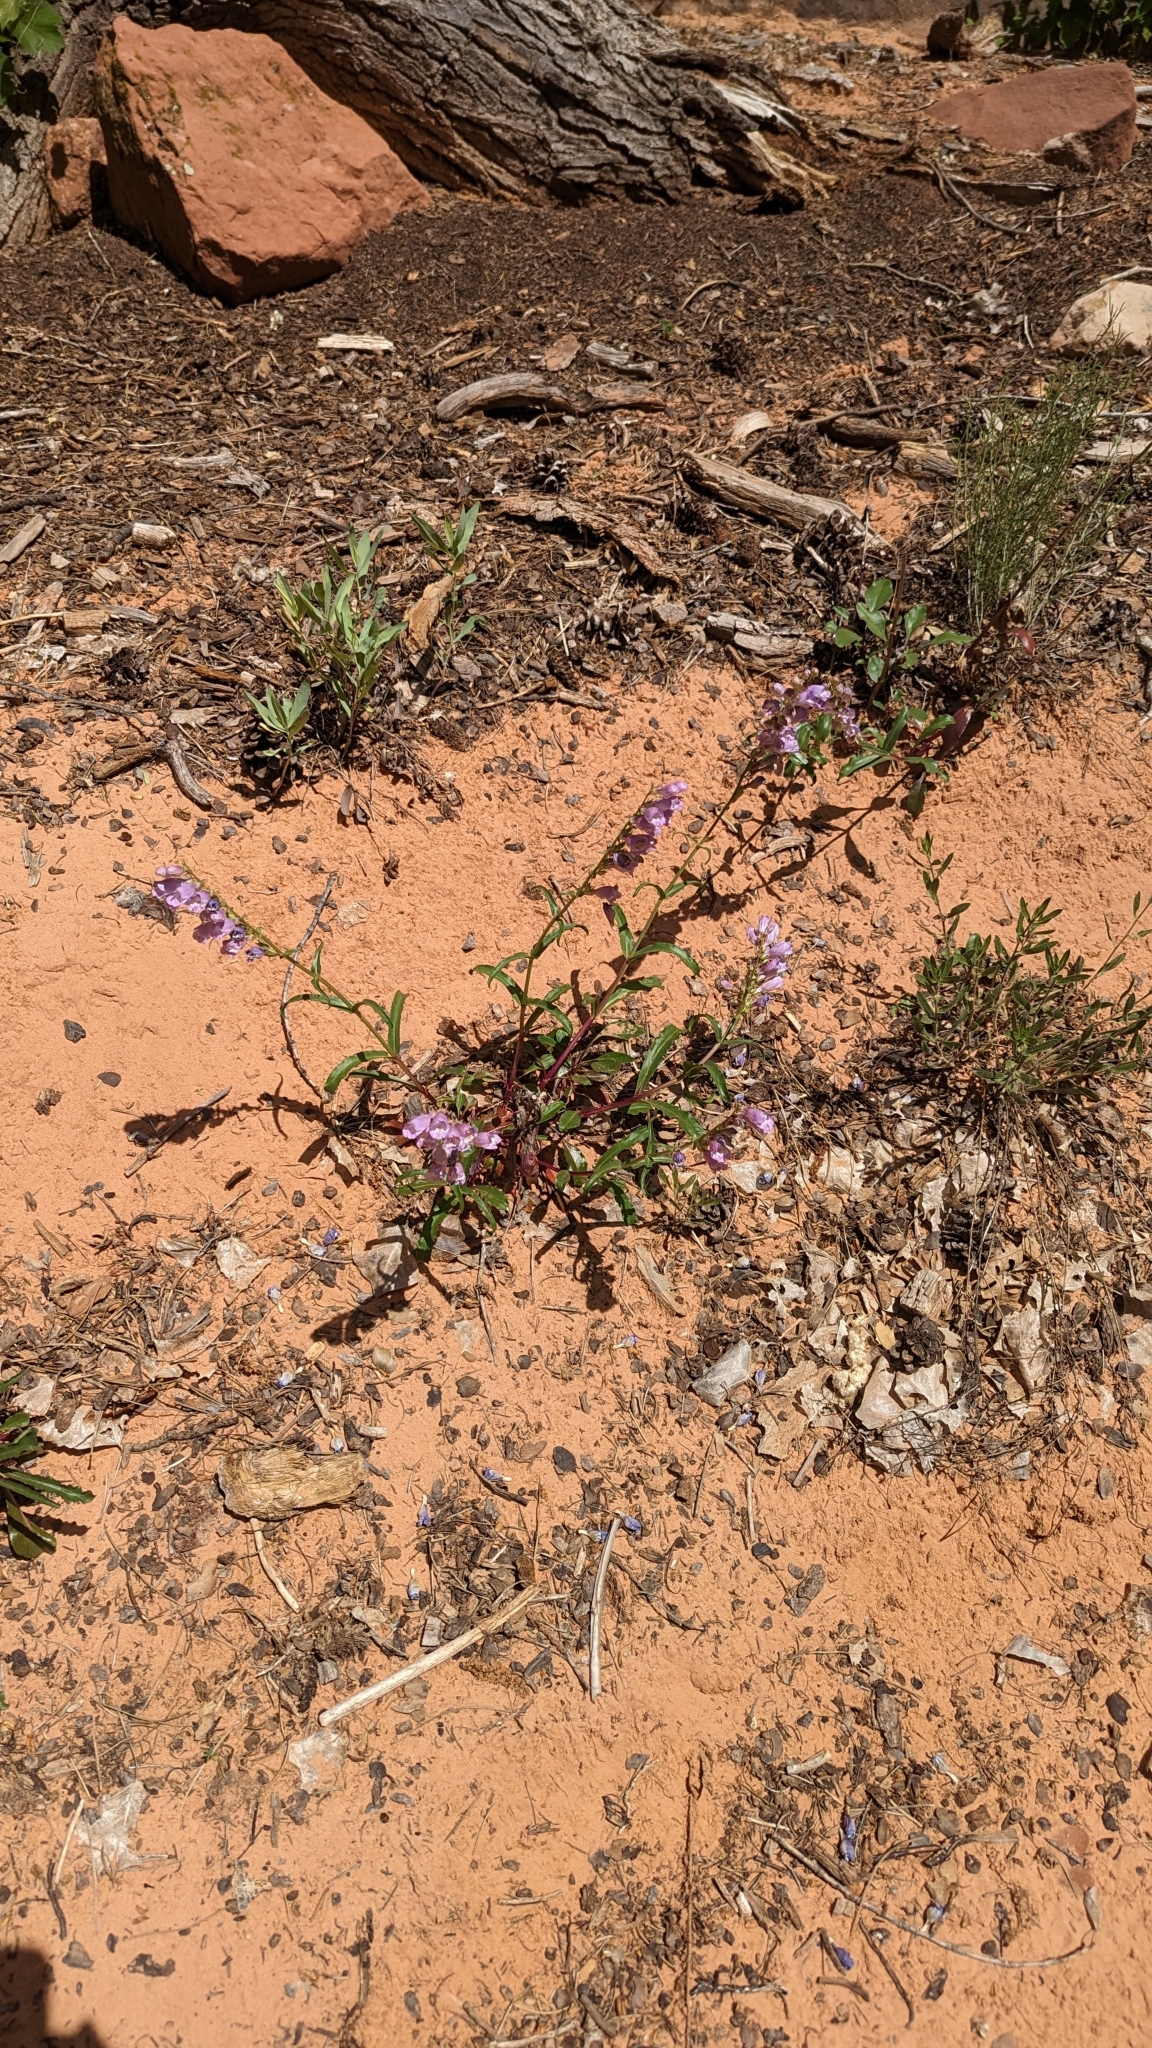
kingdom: Plantae
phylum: Tracheophyta
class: Magnoliopsida
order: Lamiales
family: Plantaginaceae
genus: Penstemon
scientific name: Penstemon laevis
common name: Smooth penstemon
